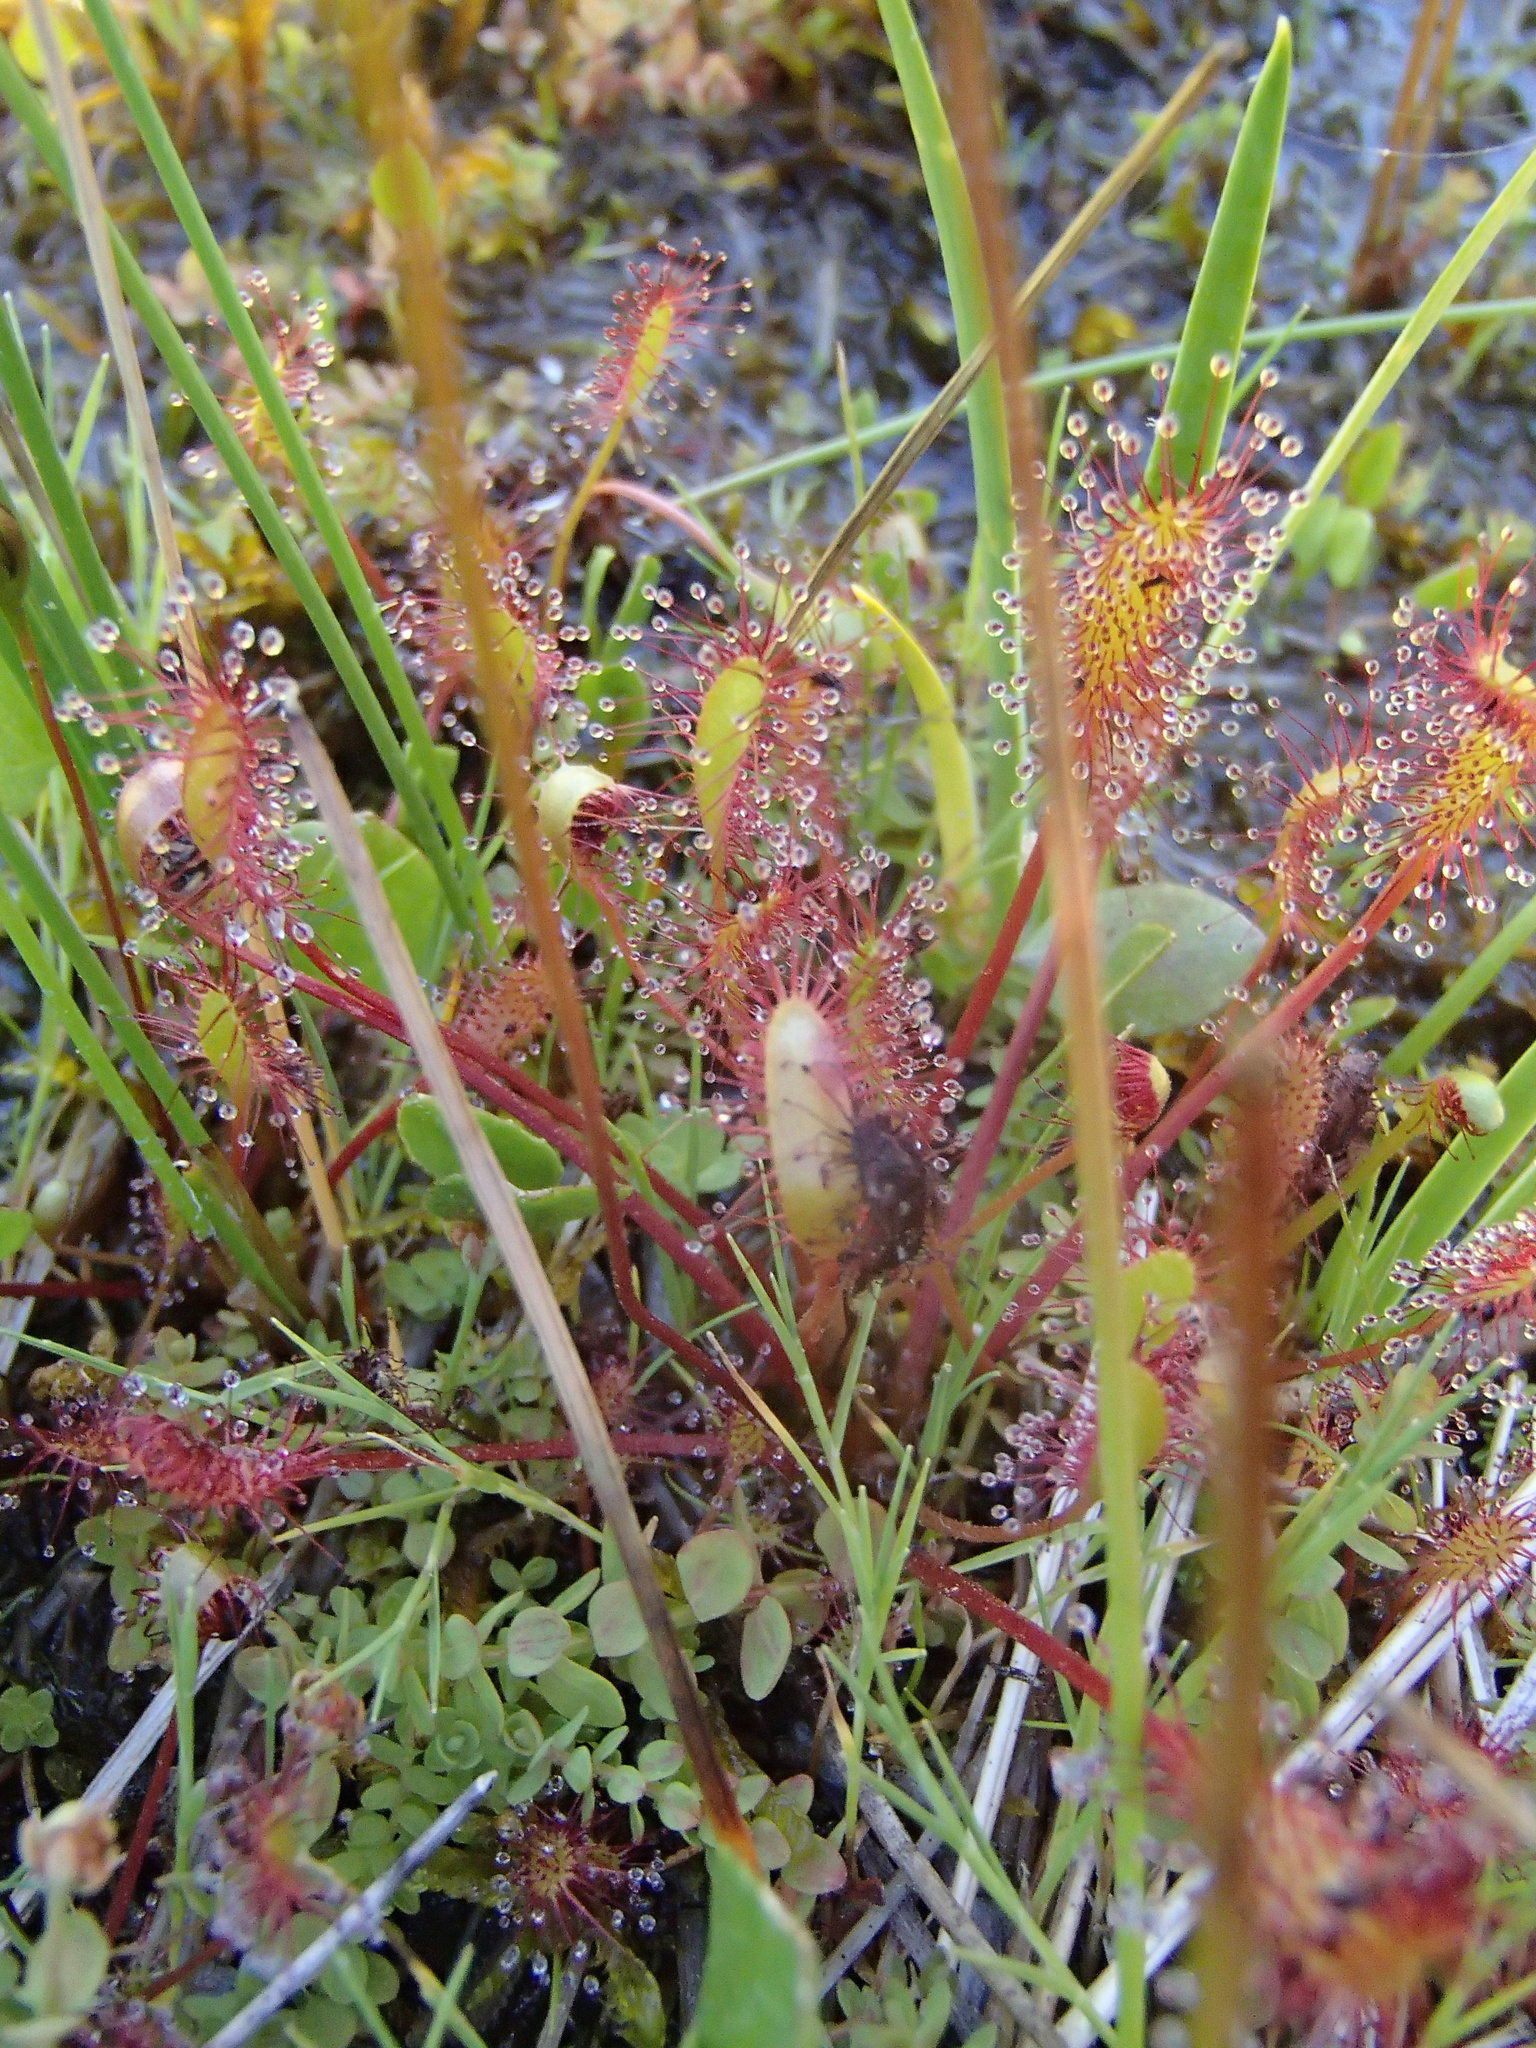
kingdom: Plantae
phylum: Tracheophyta
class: Magnoliopsida
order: Caryophyllales
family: Droseraceae
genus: Drosera
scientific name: Drosera anglica
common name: Great sundew
